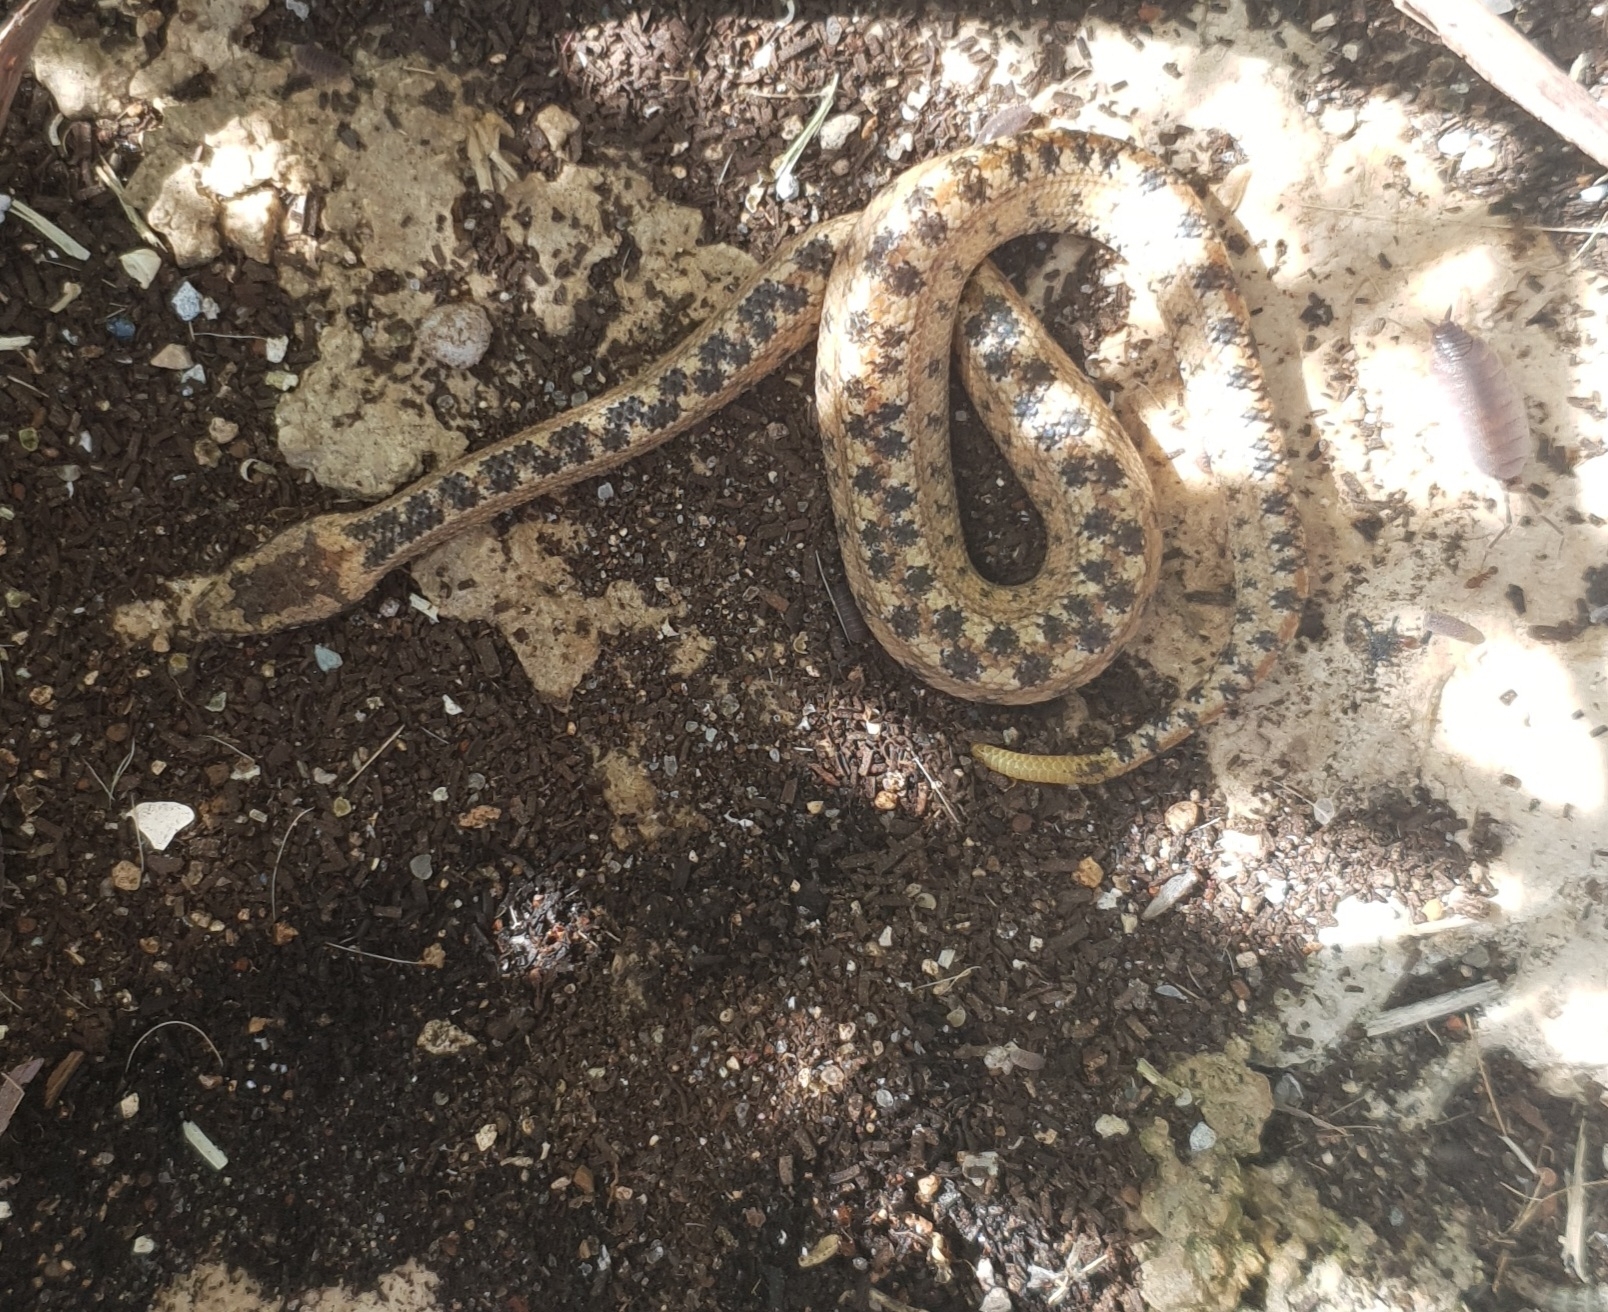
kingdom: Animalia
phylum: Chordata
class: Squamata
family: Tropidophiidae
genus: Tropidophis
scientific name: Tropidophis caymanensis
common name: Cayman islands dwarf boa
